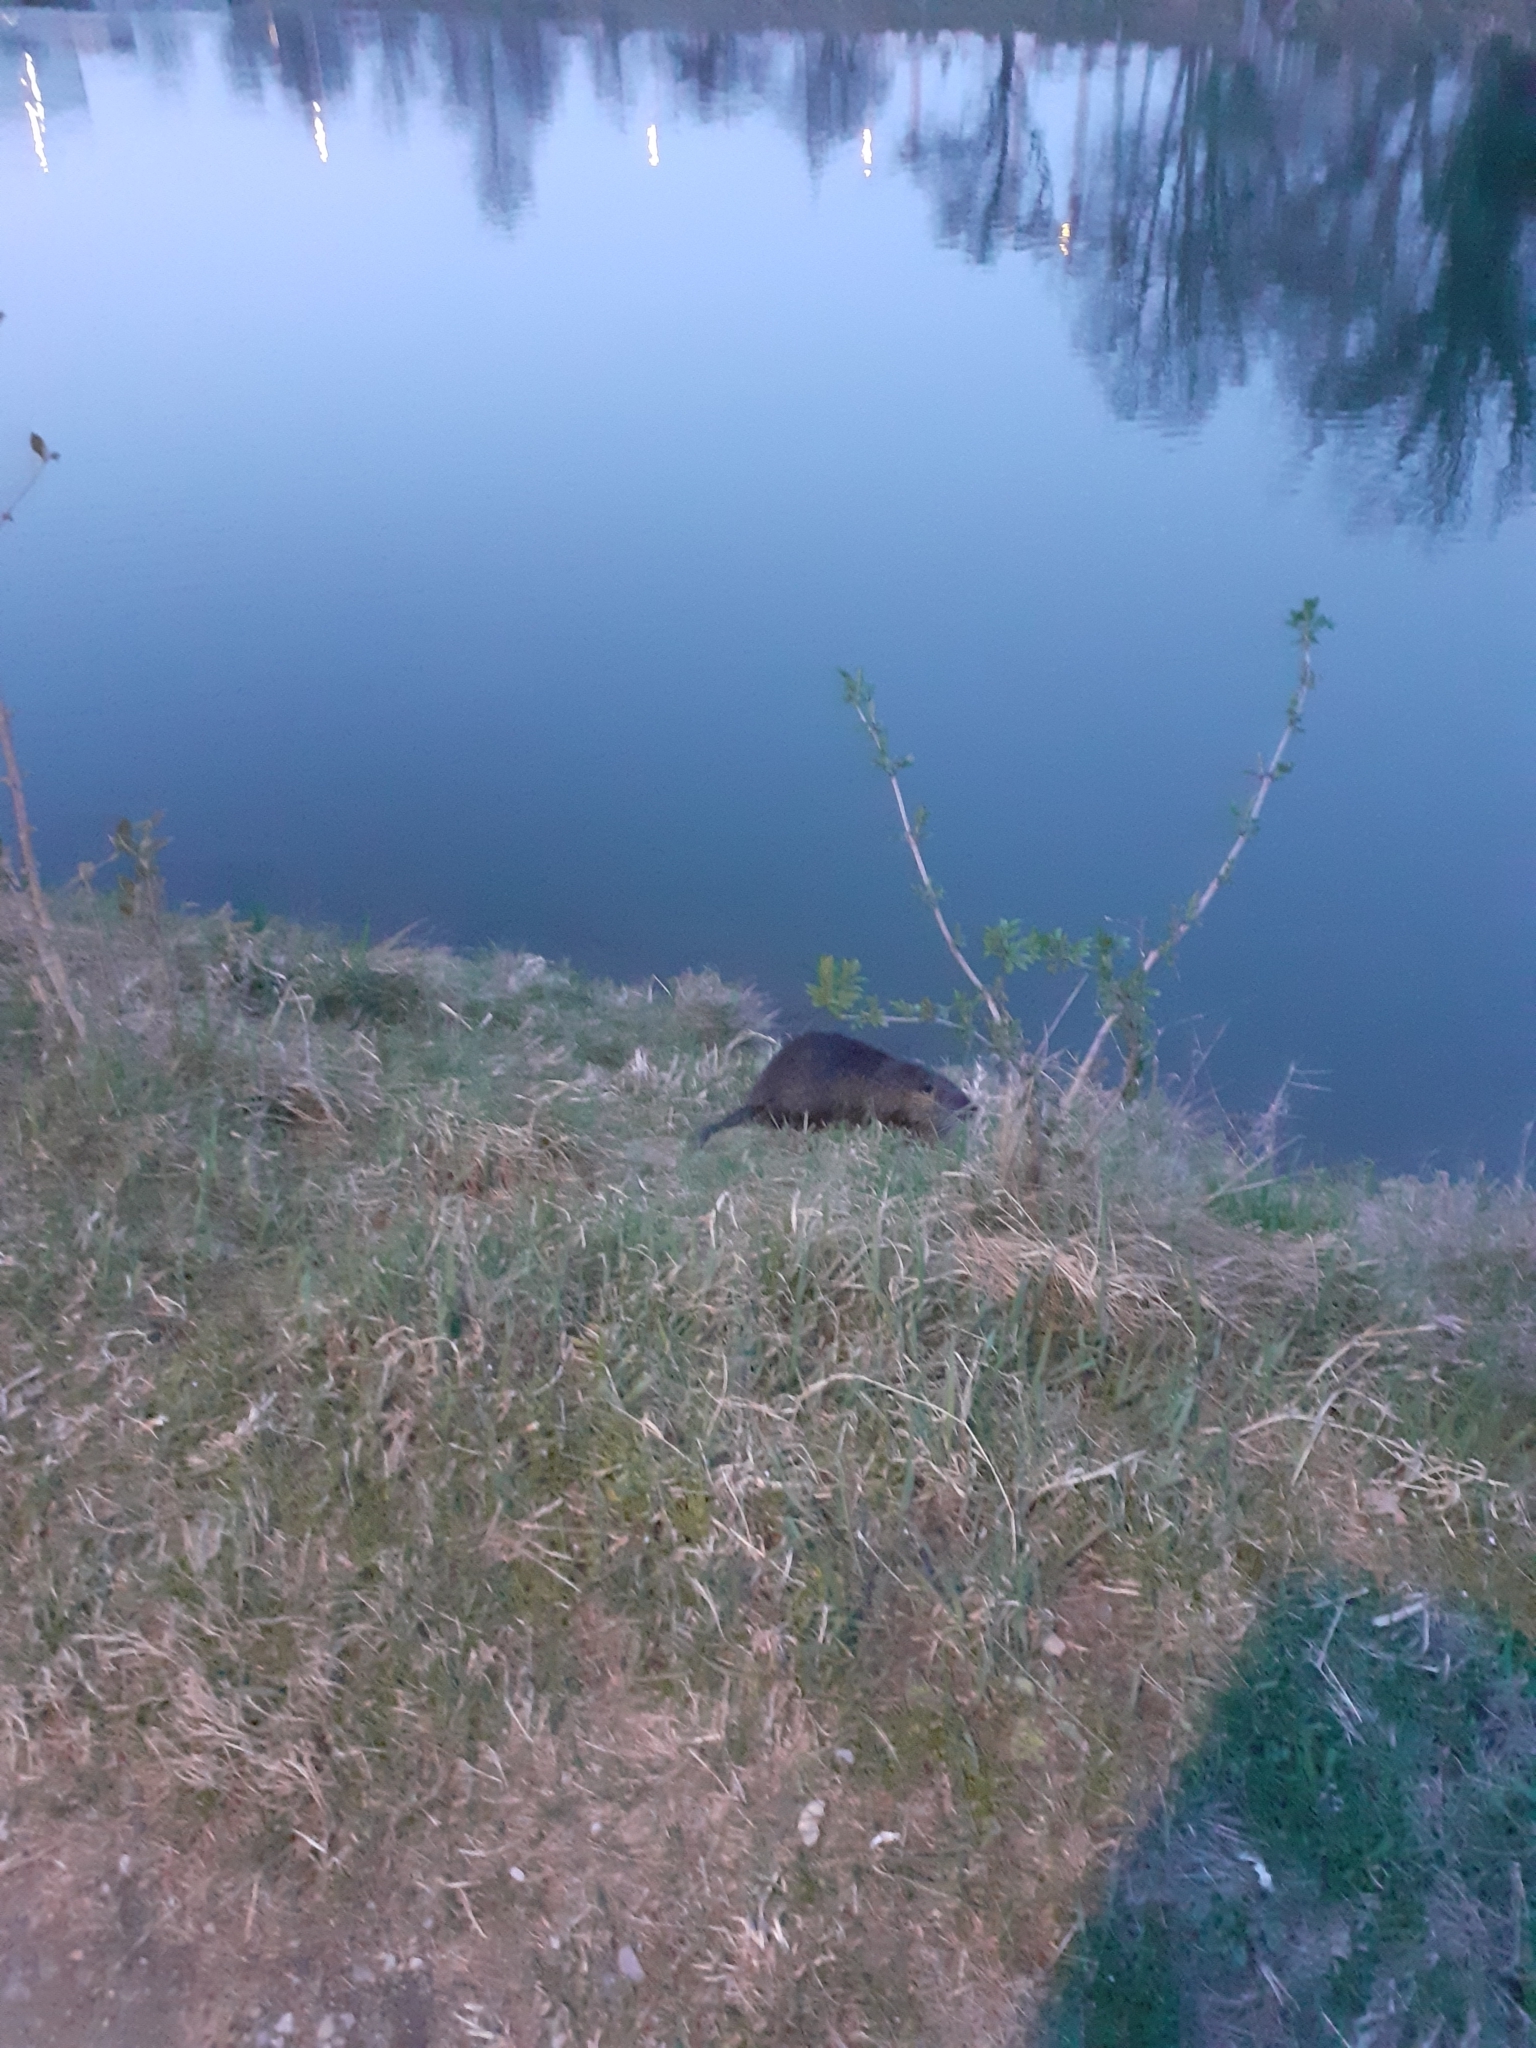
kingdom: Animalia
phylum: Chordata
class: Mammalia
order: Rodentia
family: Myocastoridae
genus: Myocastor
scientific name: Myocastor coypus
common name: Coypu
